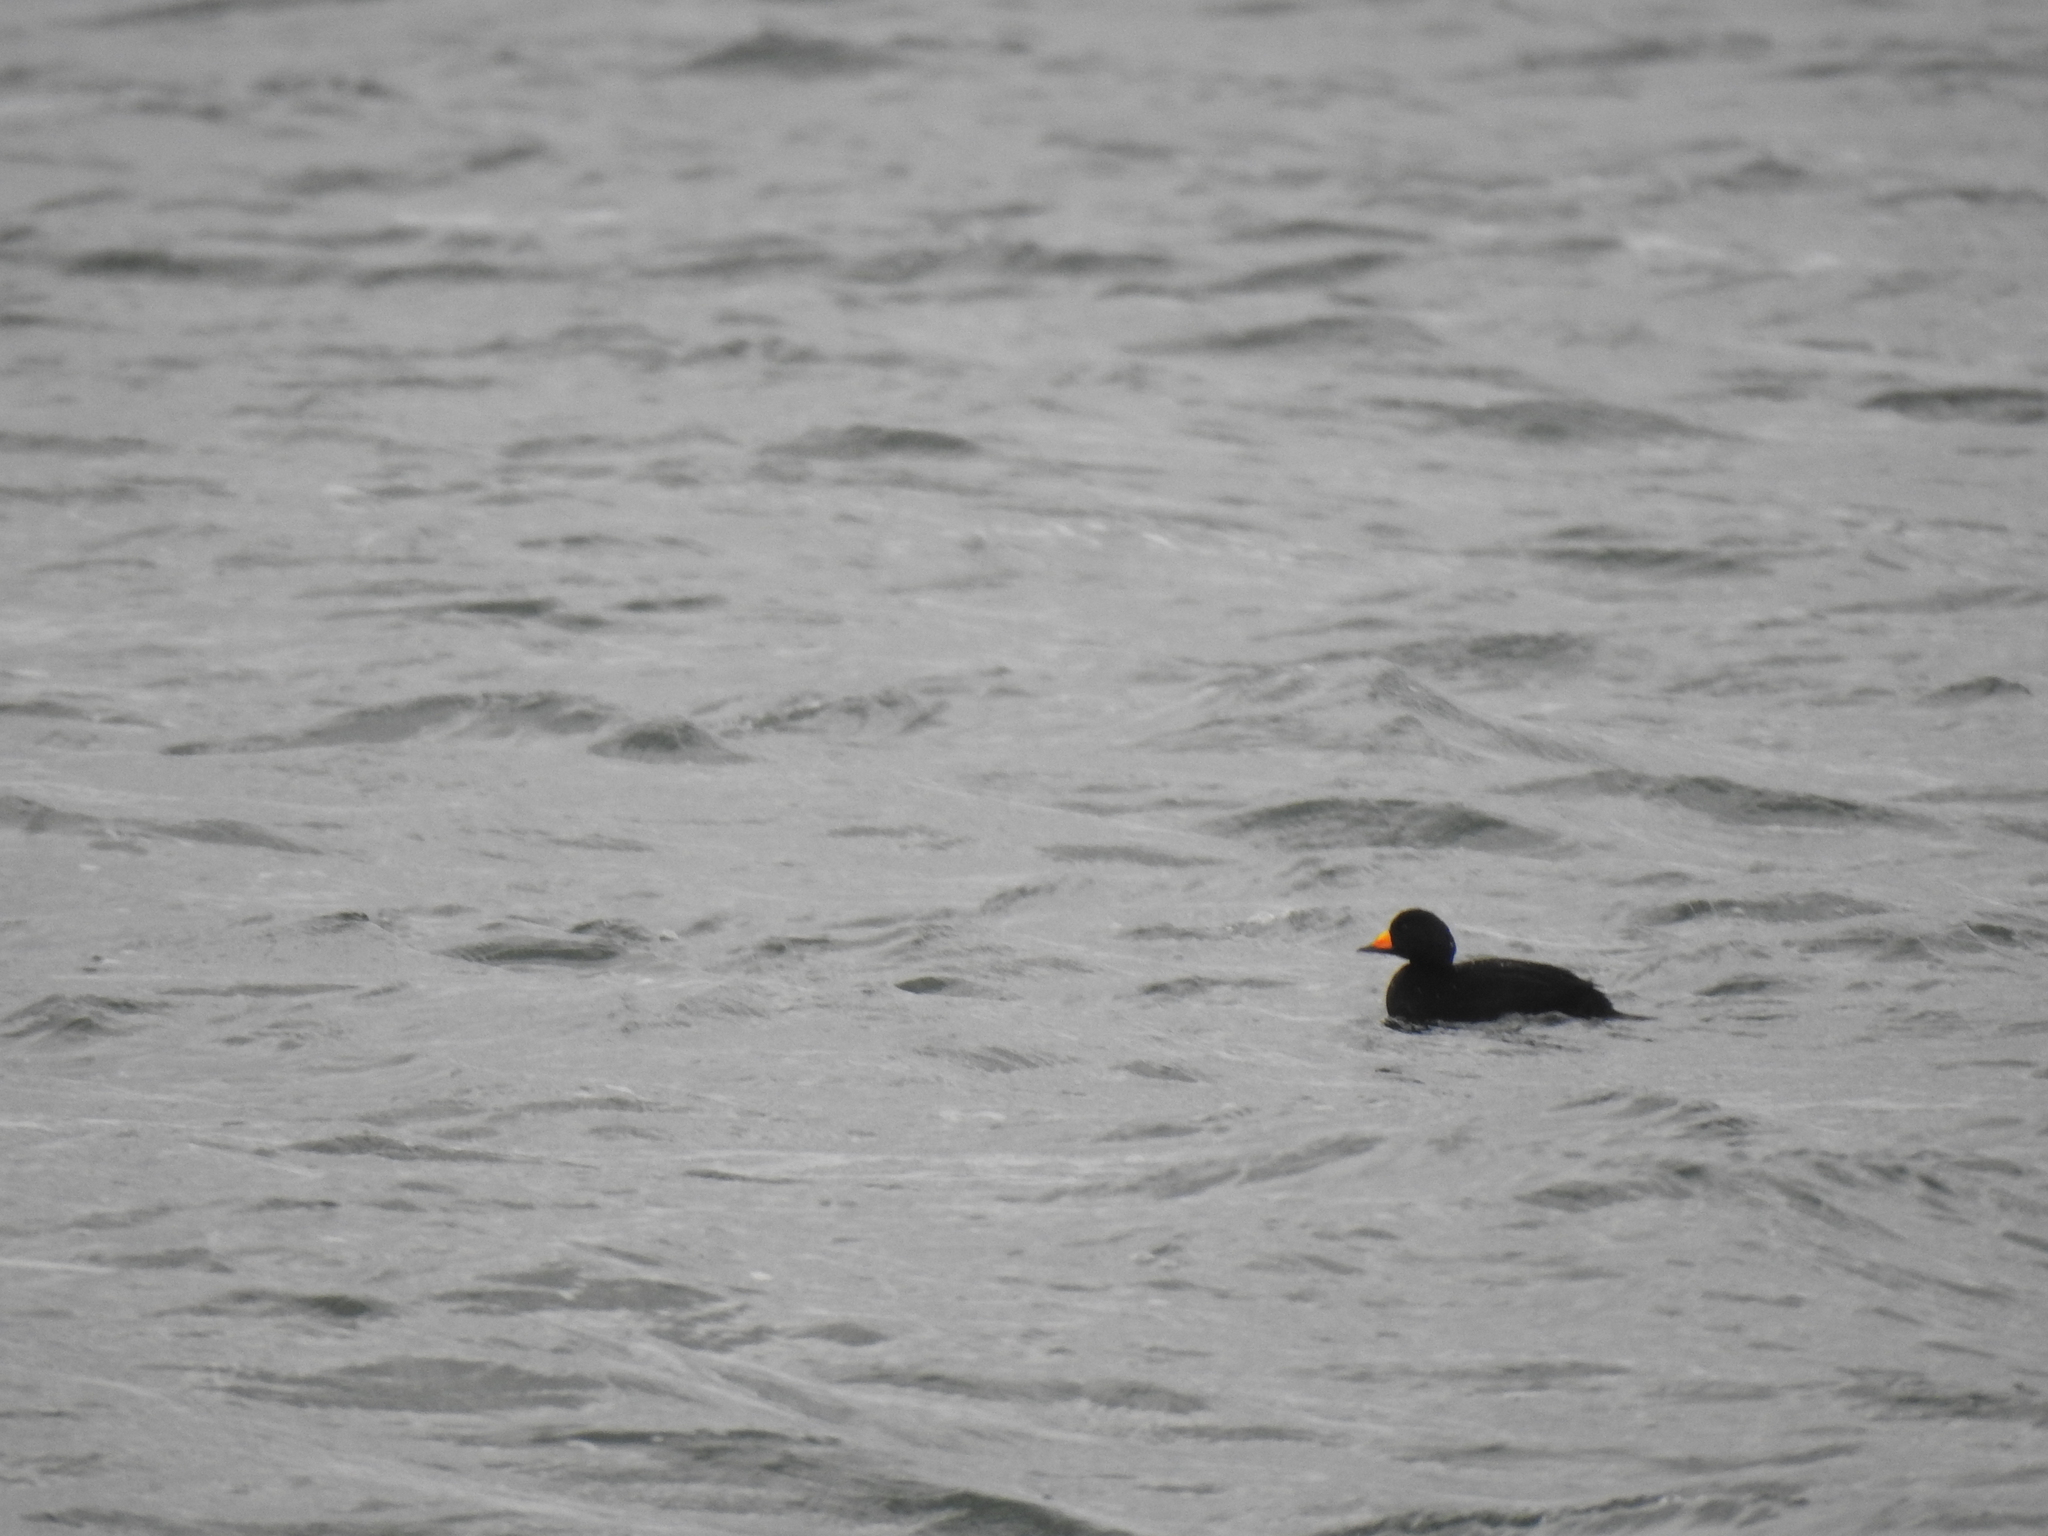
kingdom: Animalia
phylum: Chordata
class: Aves
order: Anseriformes
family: Anatidae
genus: Melanitta
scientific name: Melanitta americana
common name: Black scoter
